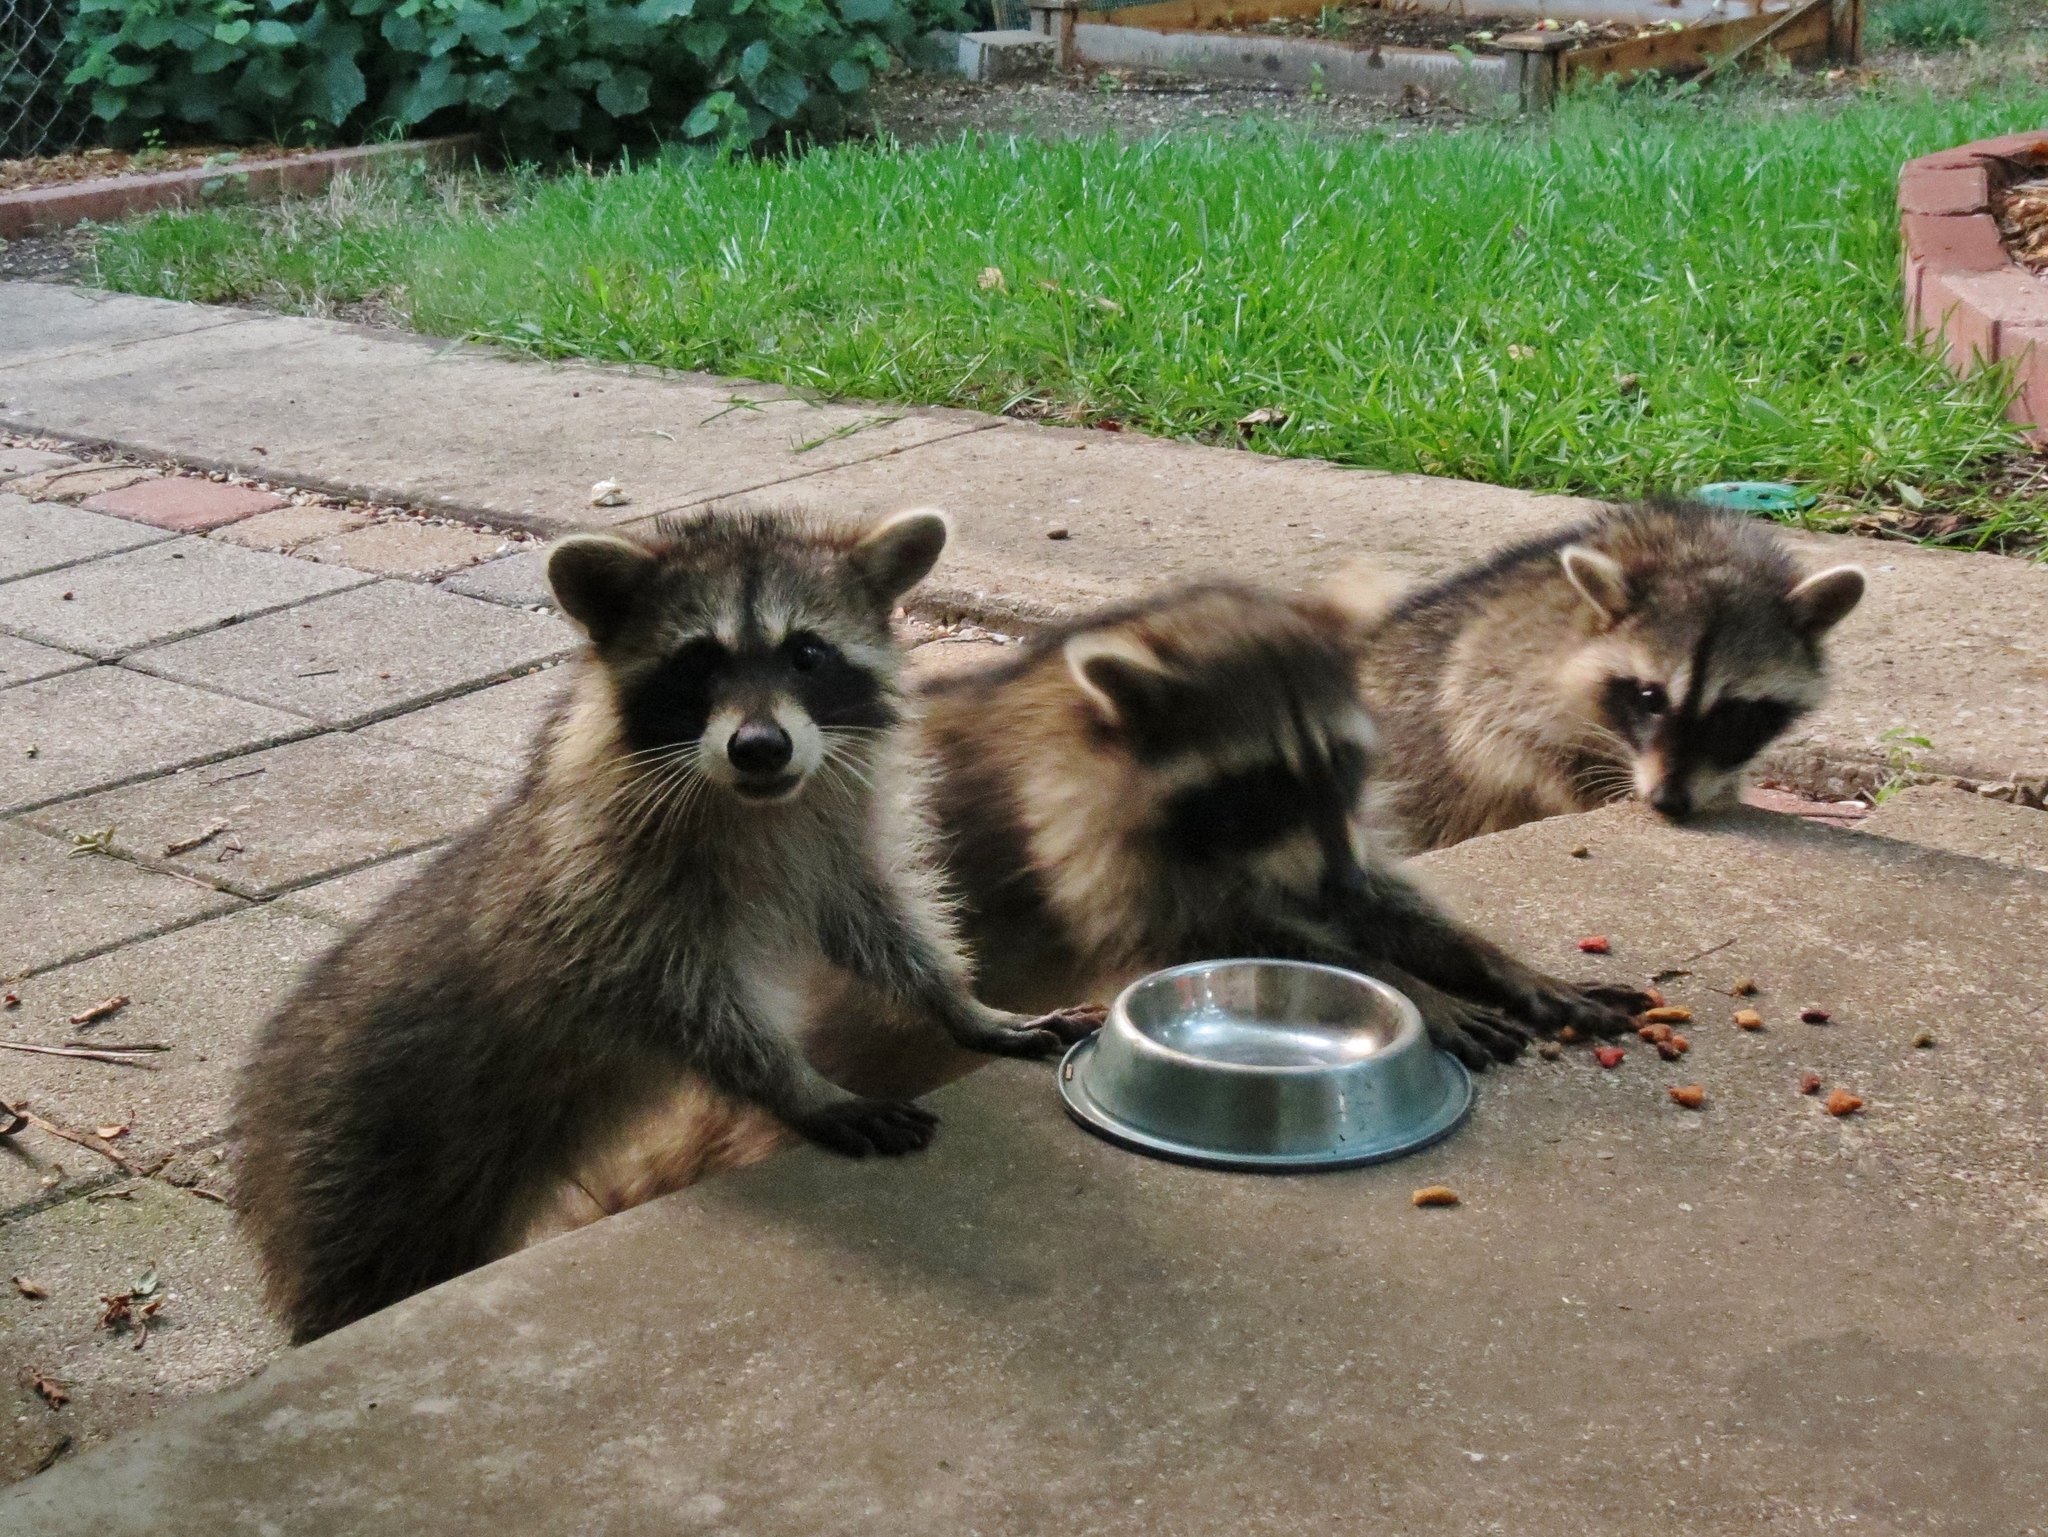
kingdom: Animalia
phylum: Chordata
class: Mammalia
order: Carnivora
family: Procyonidae
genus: Procyon
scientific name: Procyon lotor
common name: Raccoon
